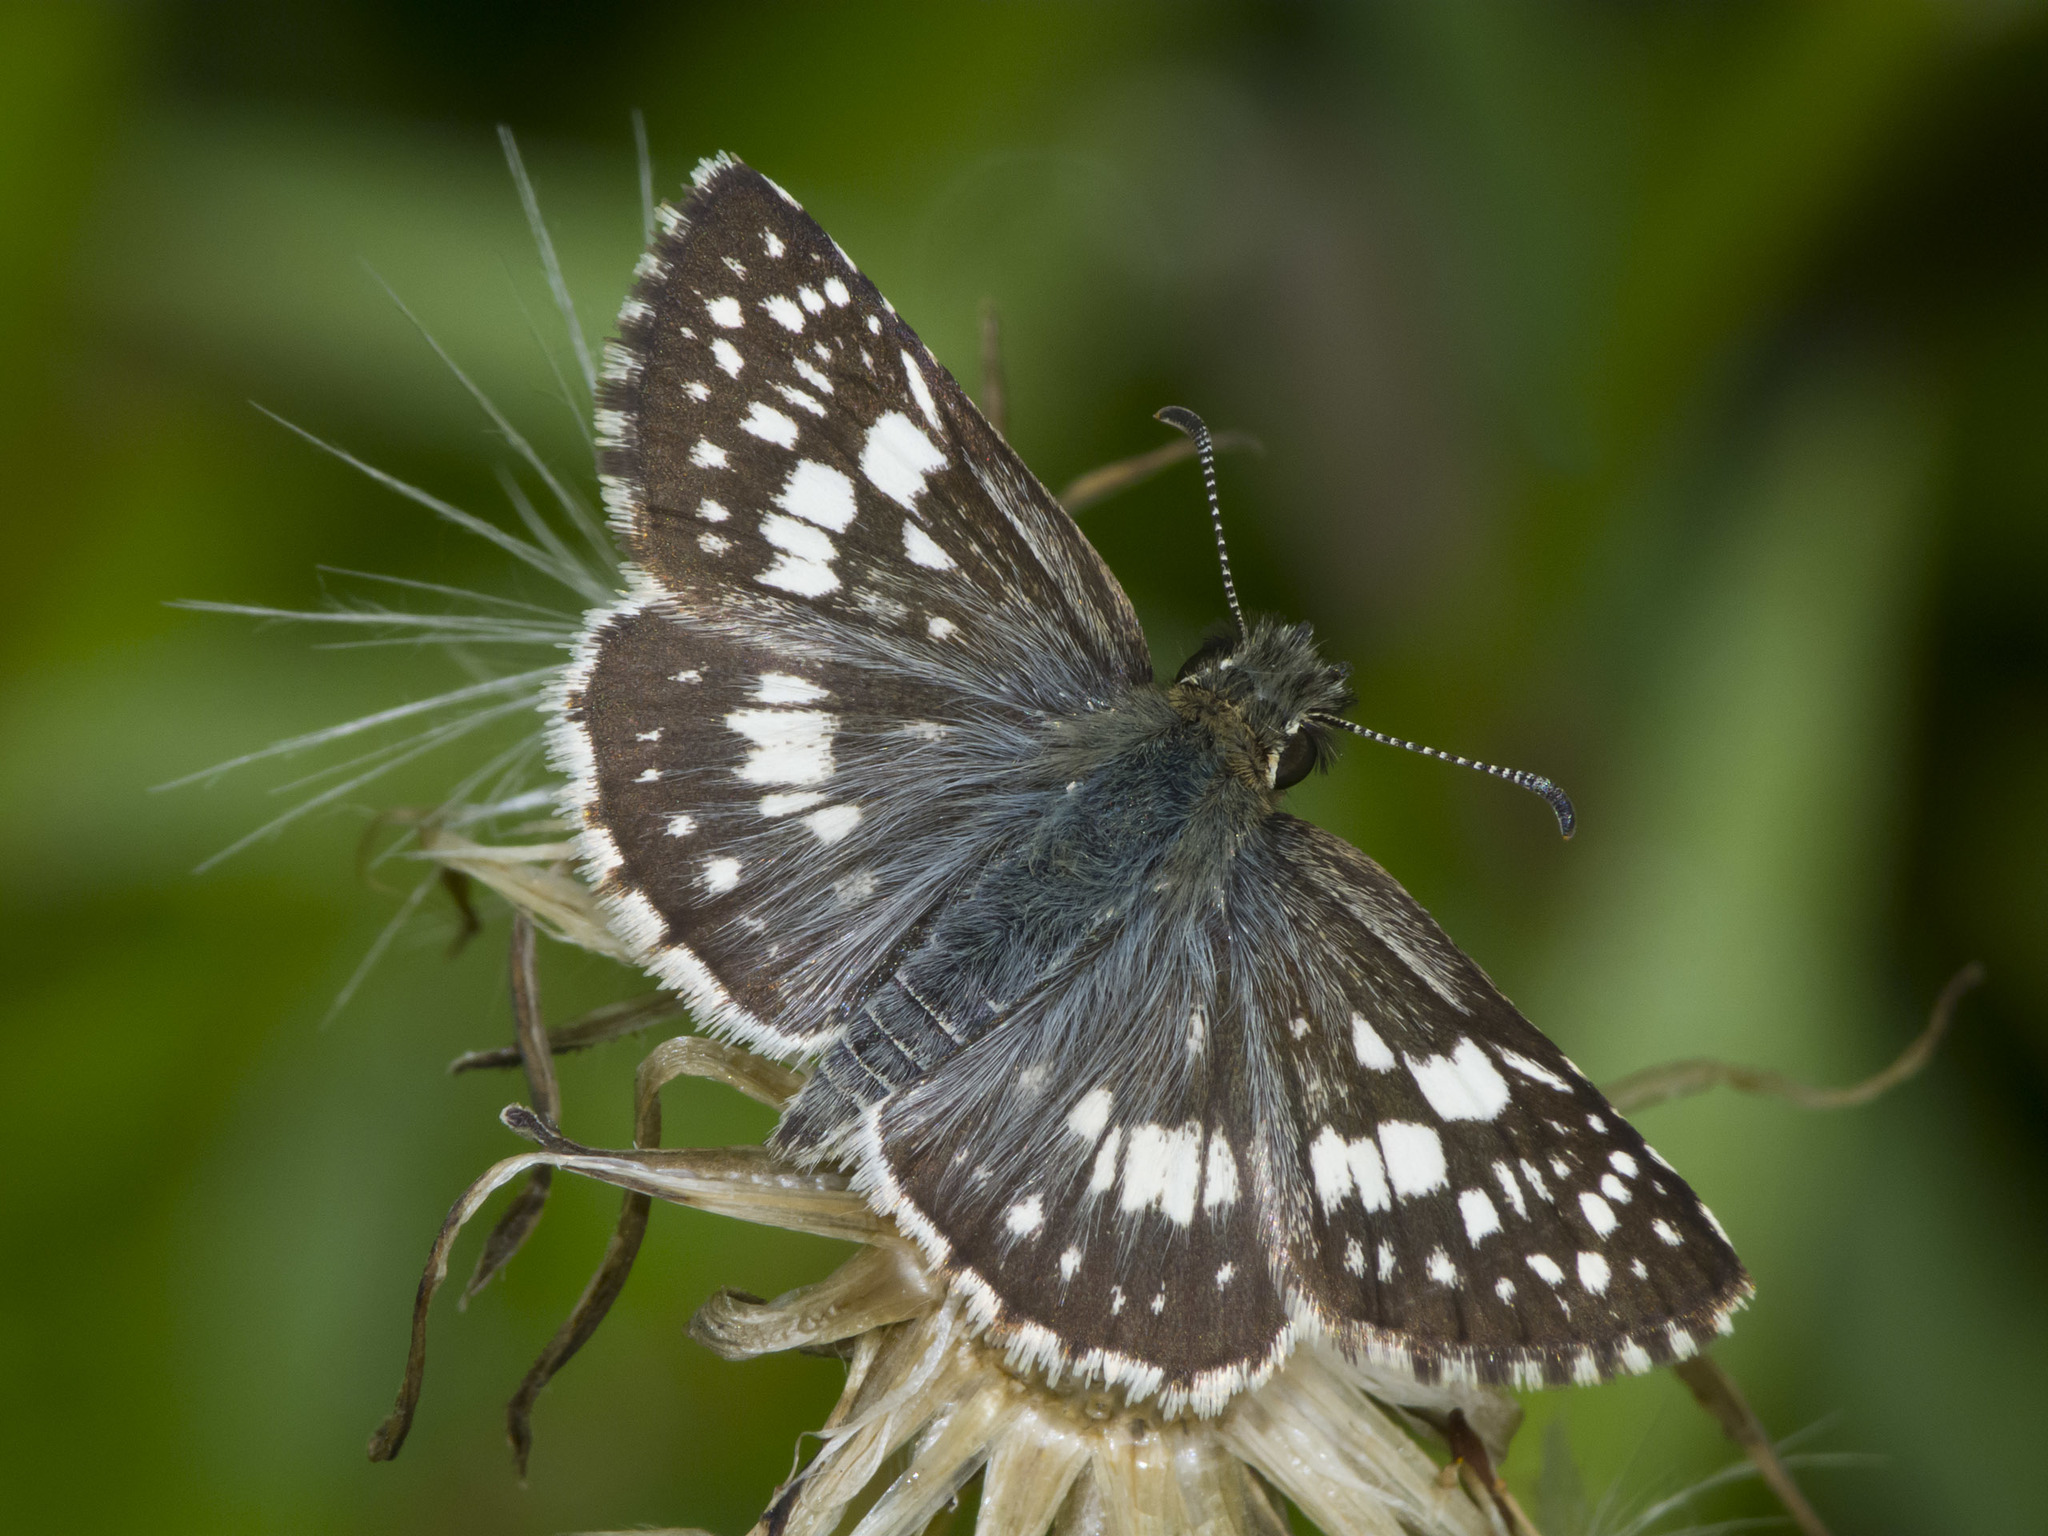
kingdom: Animalia
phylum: Arthropoda
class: Insecta
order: Lepidoptera
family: Hesperiidae
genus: Burnsius
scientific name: Burnsius adepta
